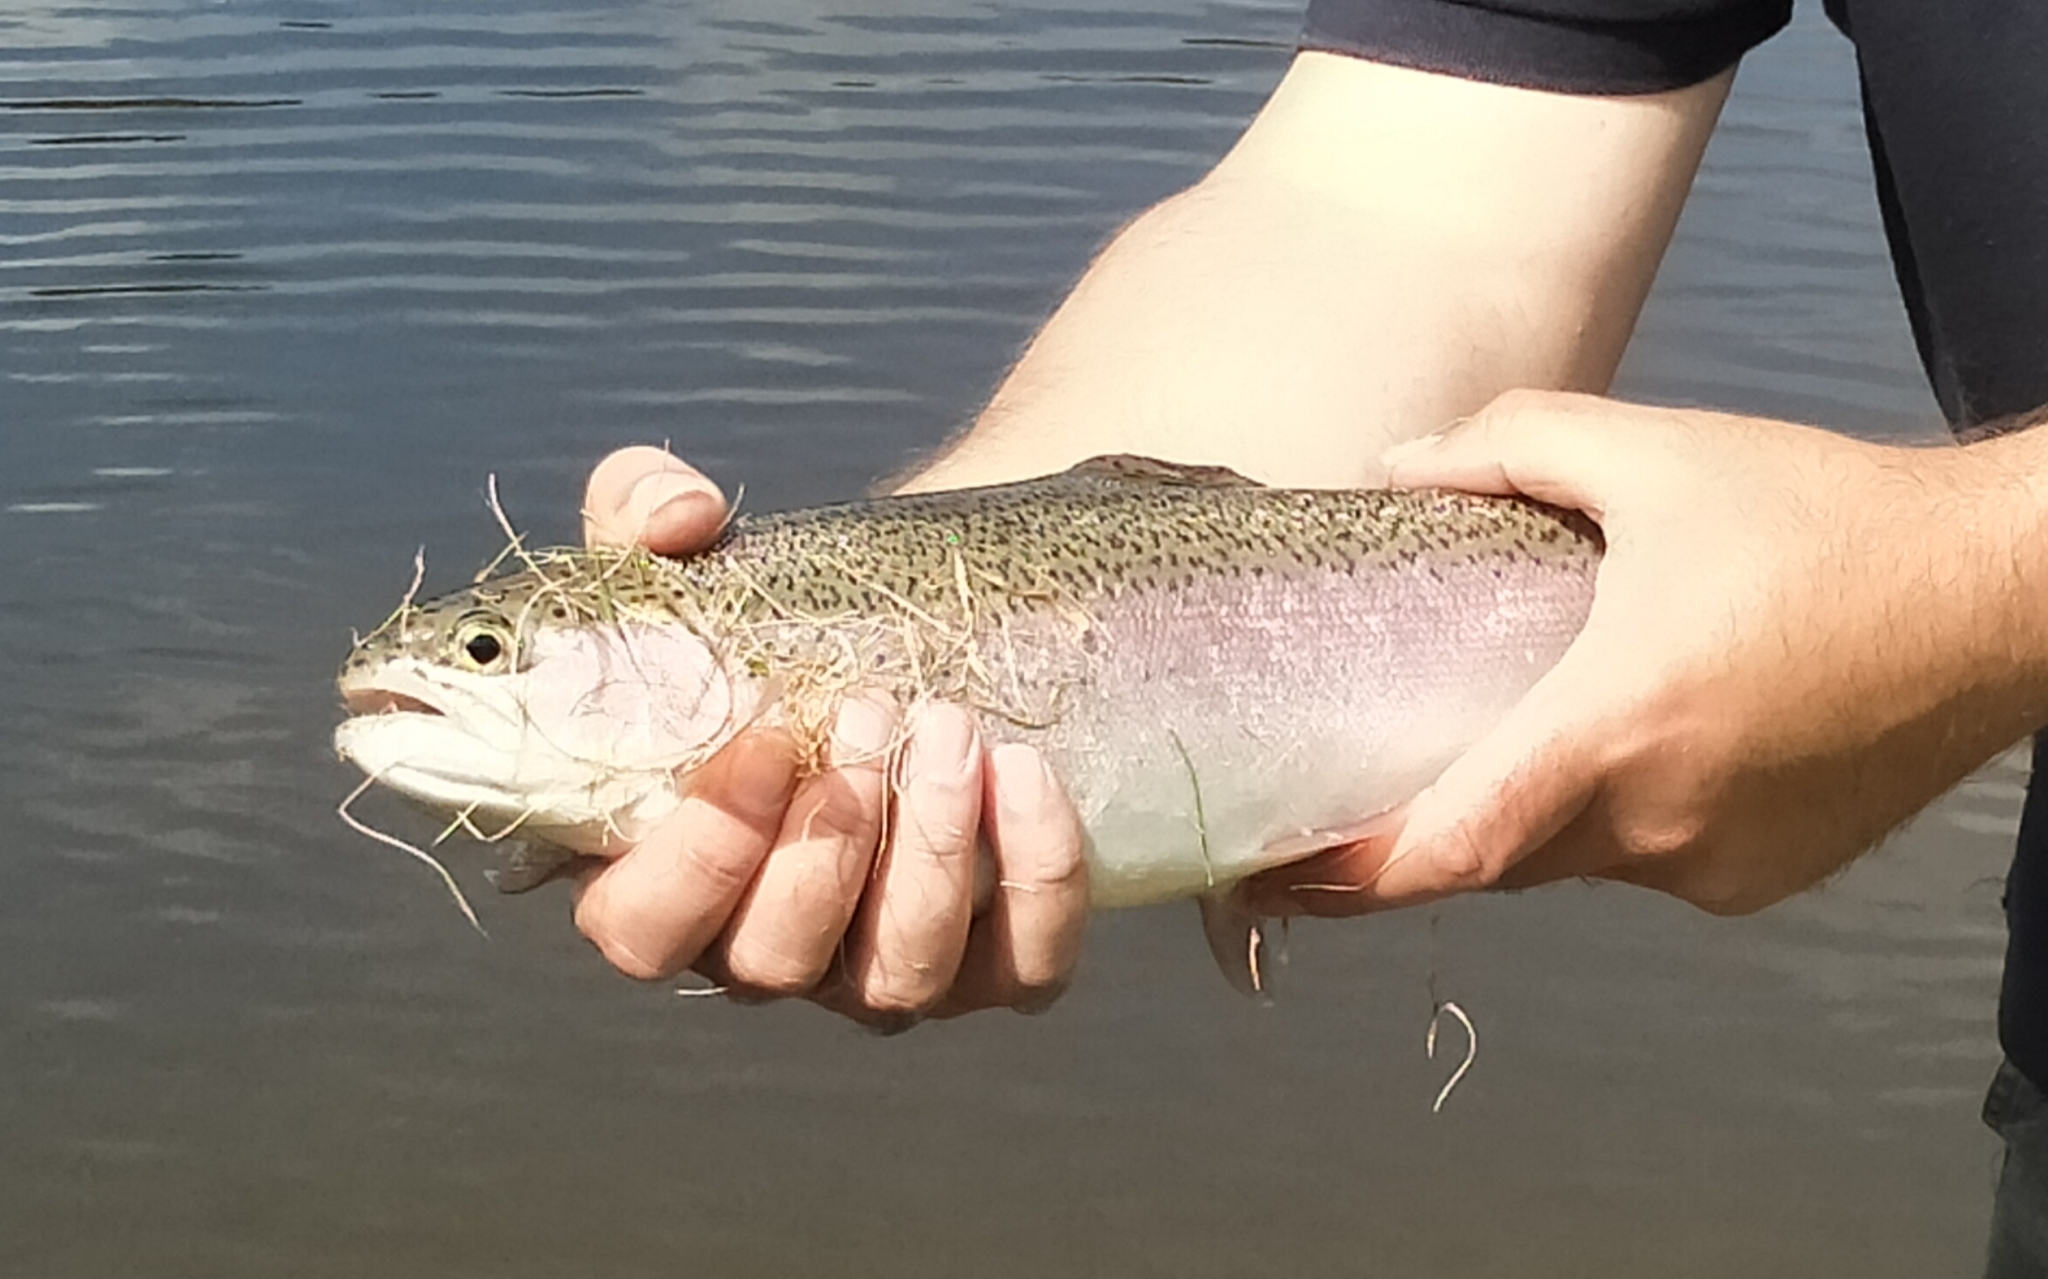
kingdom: Animalia
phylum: Chordata
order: Salmoniformes
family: Salmonidae
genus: Oncorhynchus
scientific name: Oncorhynchus mykiss
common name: Rainbow trout
